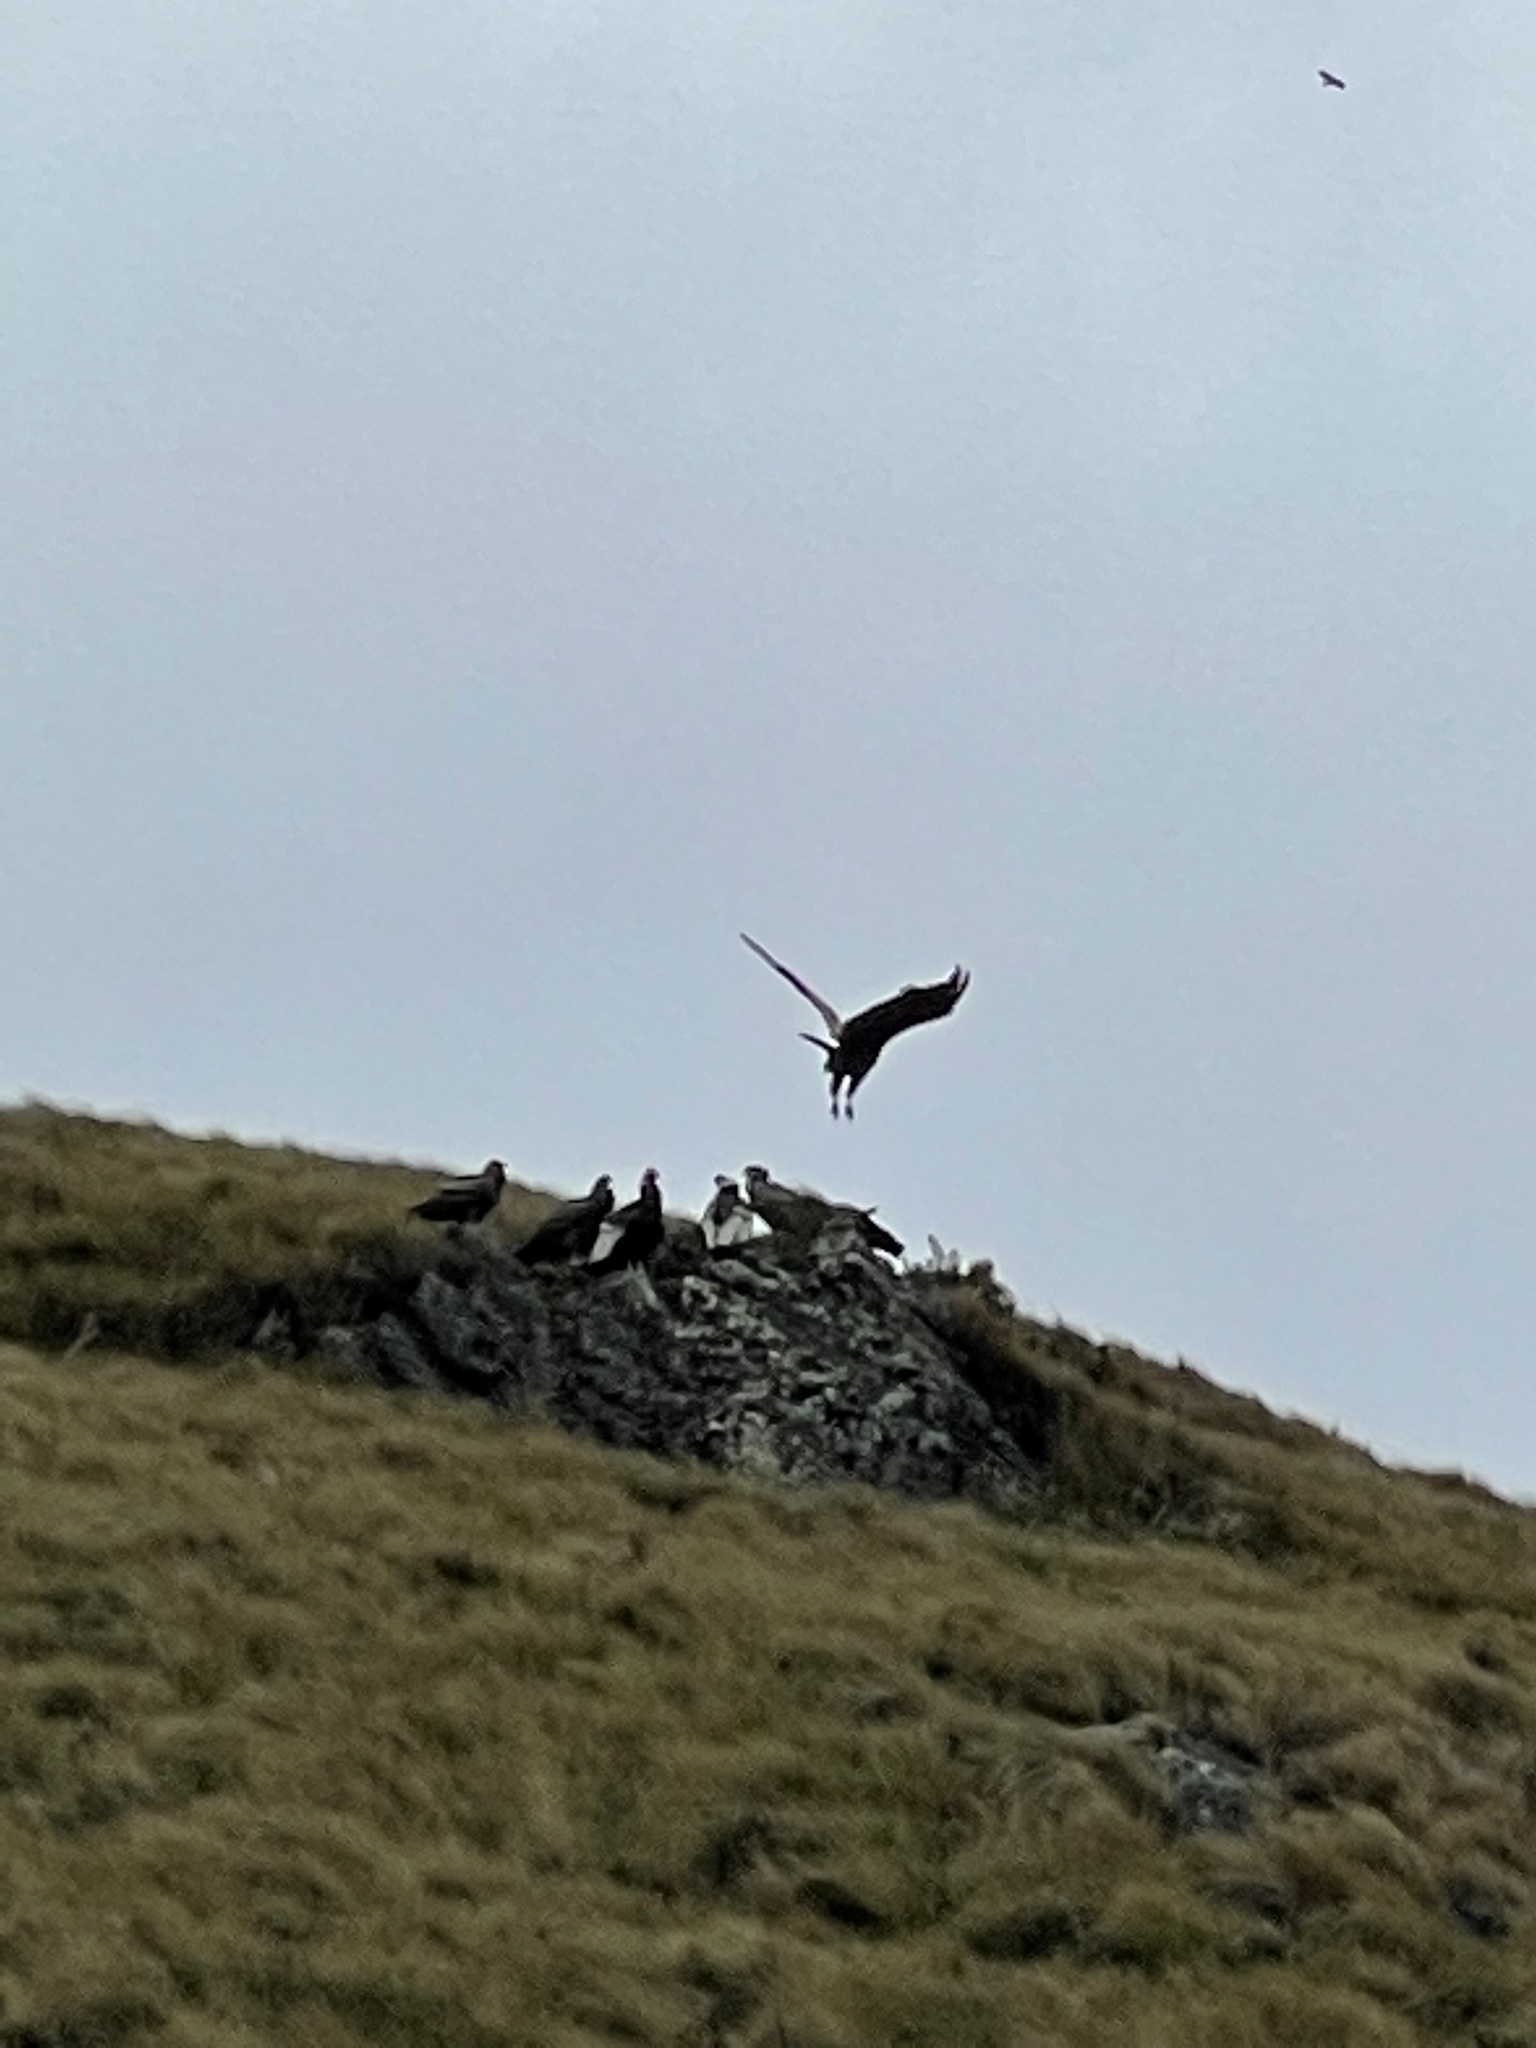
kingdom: Animalia
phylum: Chordata
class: Aves
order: Accipitriformes
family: Cathartidae
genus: Vultur
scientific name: Vultur gryphus
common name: Andean condor
